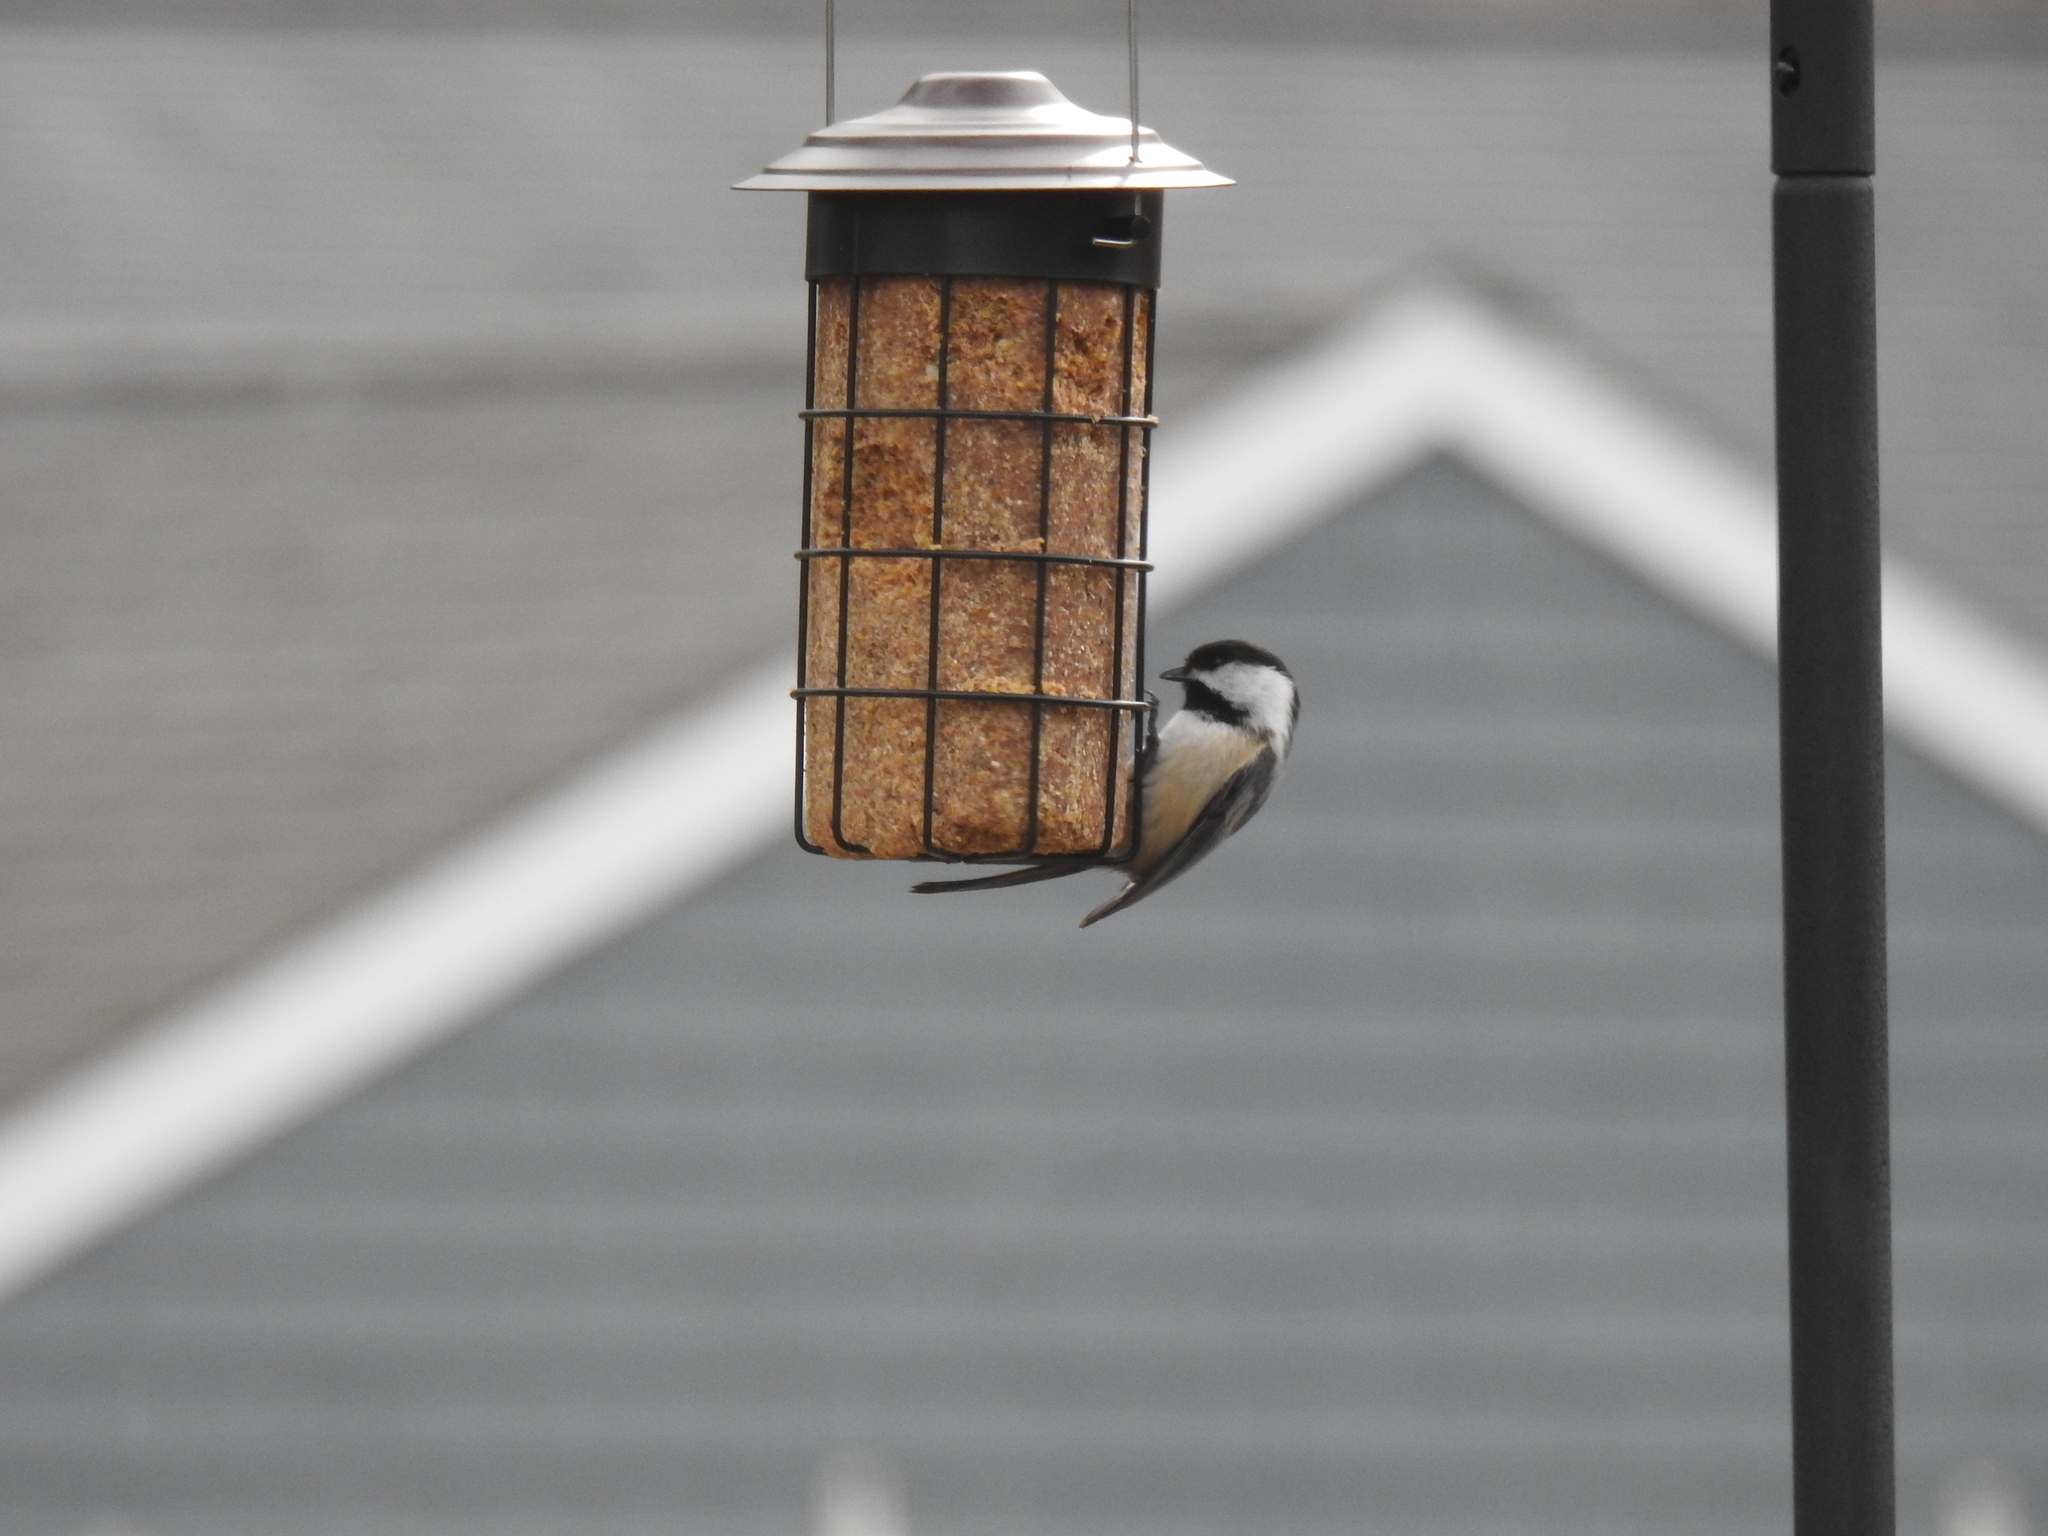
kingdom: Animalia
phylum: Chordata
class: Aves
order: Passeriformes
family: Paridae
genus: Poecile
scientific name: Poecile atricapillus
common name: Black-capped chickadee
